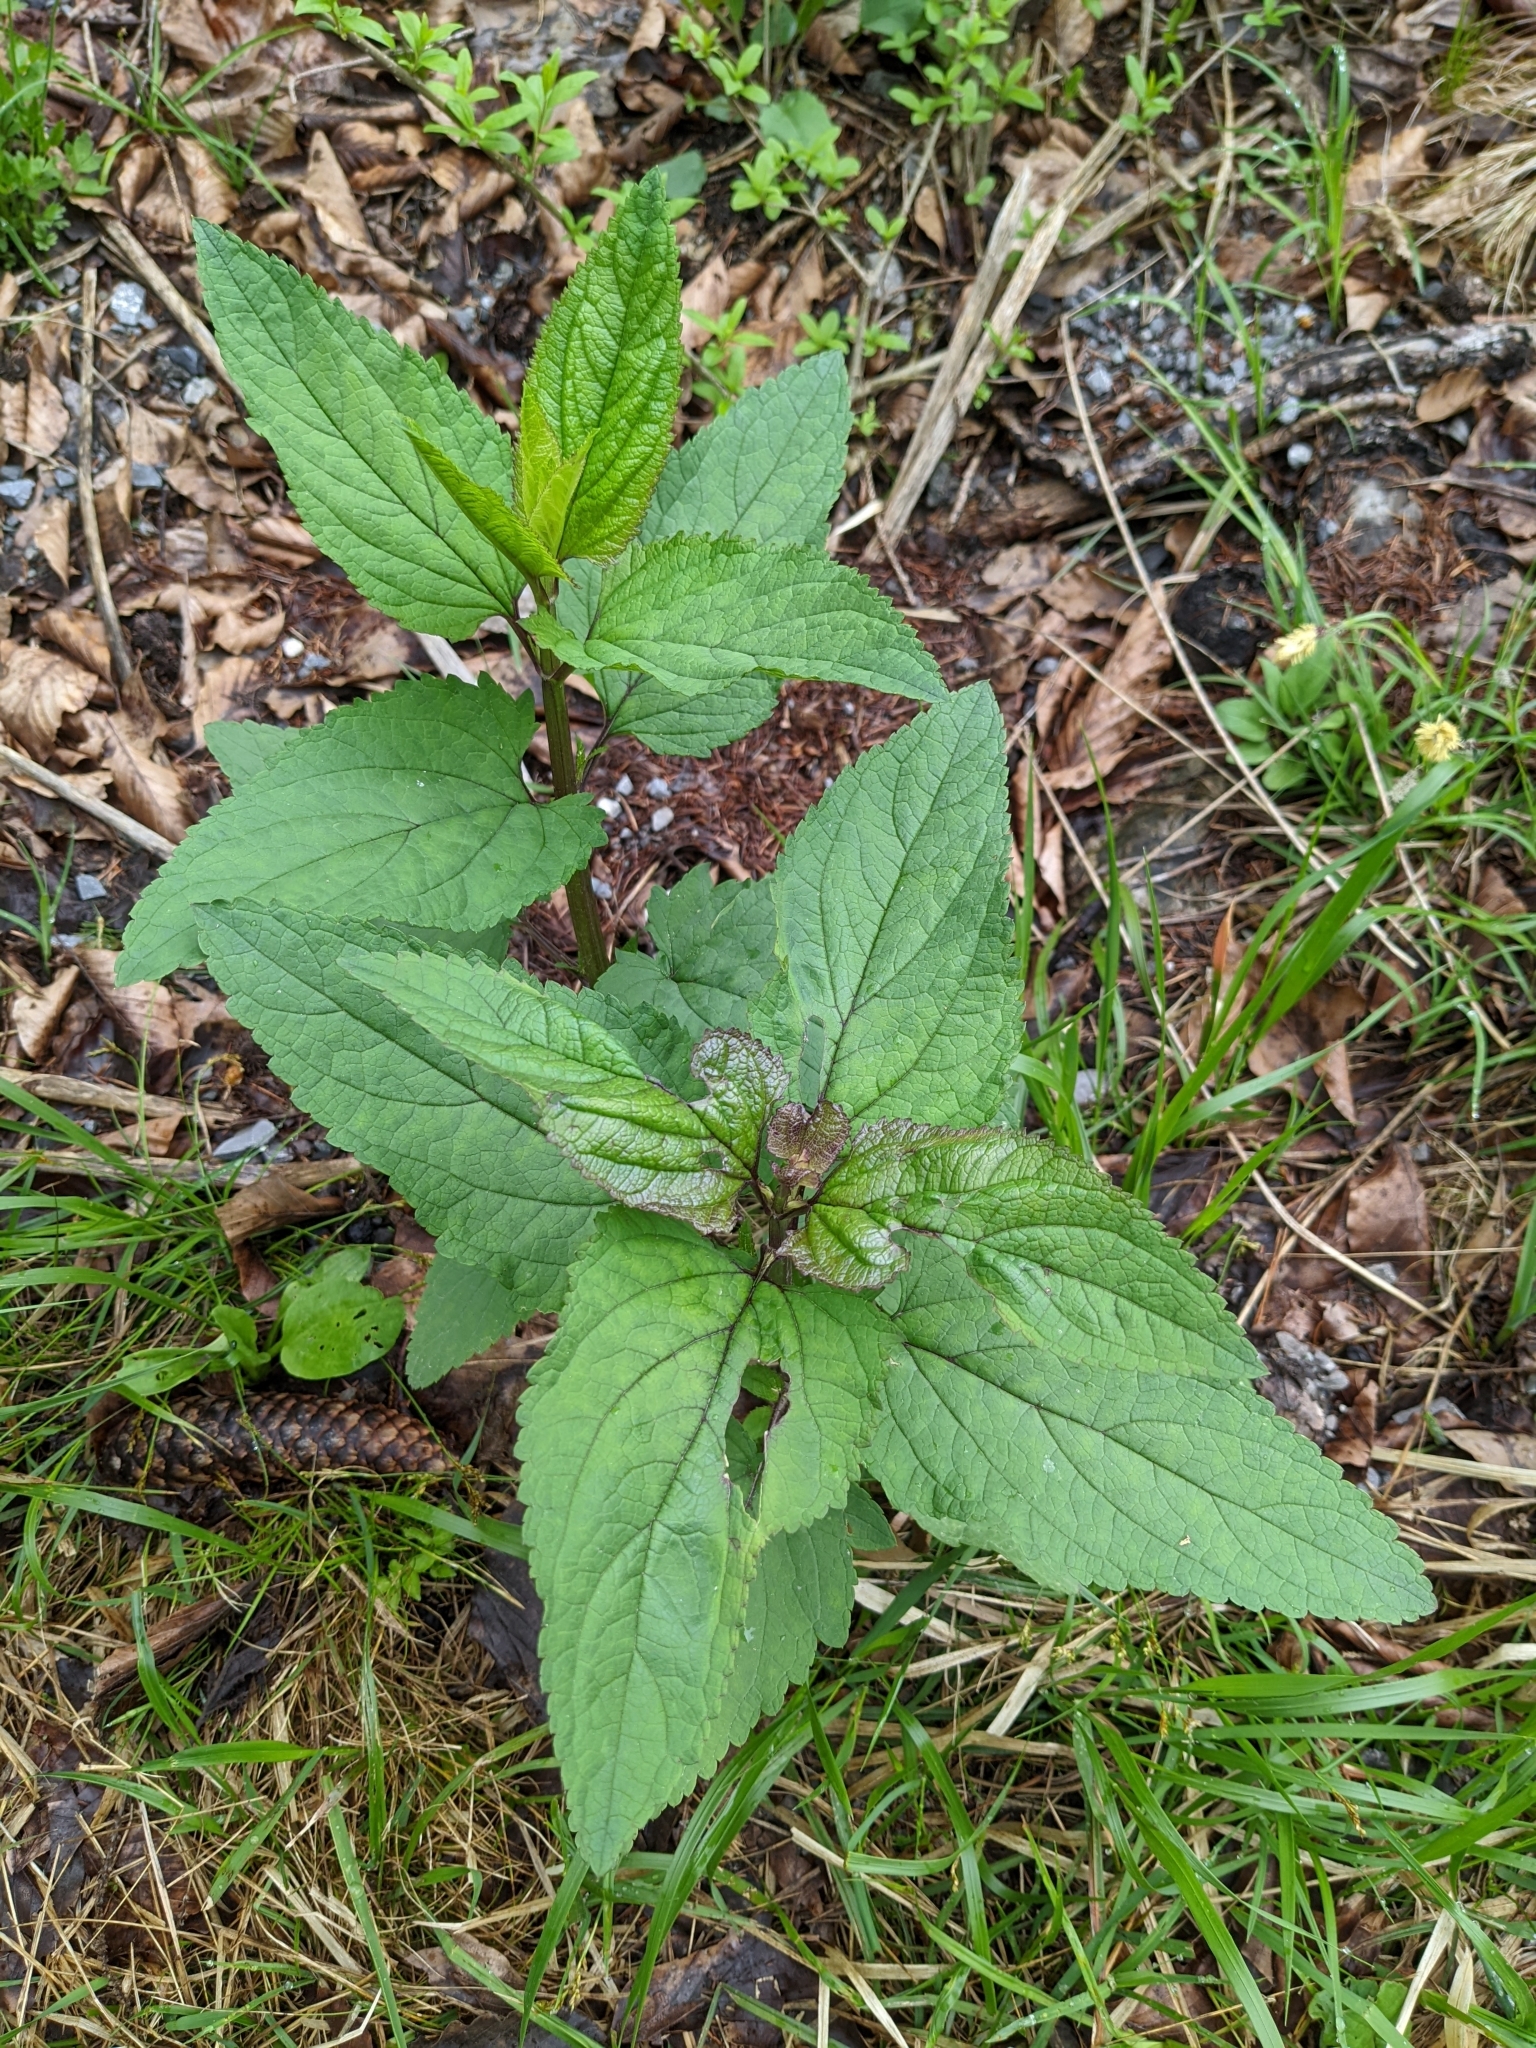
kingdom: Plantae
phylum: Tracheophyta
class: Magnoliopsida
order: Lamiales
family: Scrophulariaceae
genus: Scrophularia
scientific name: Scrophularia nodosa
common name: Common figwort
